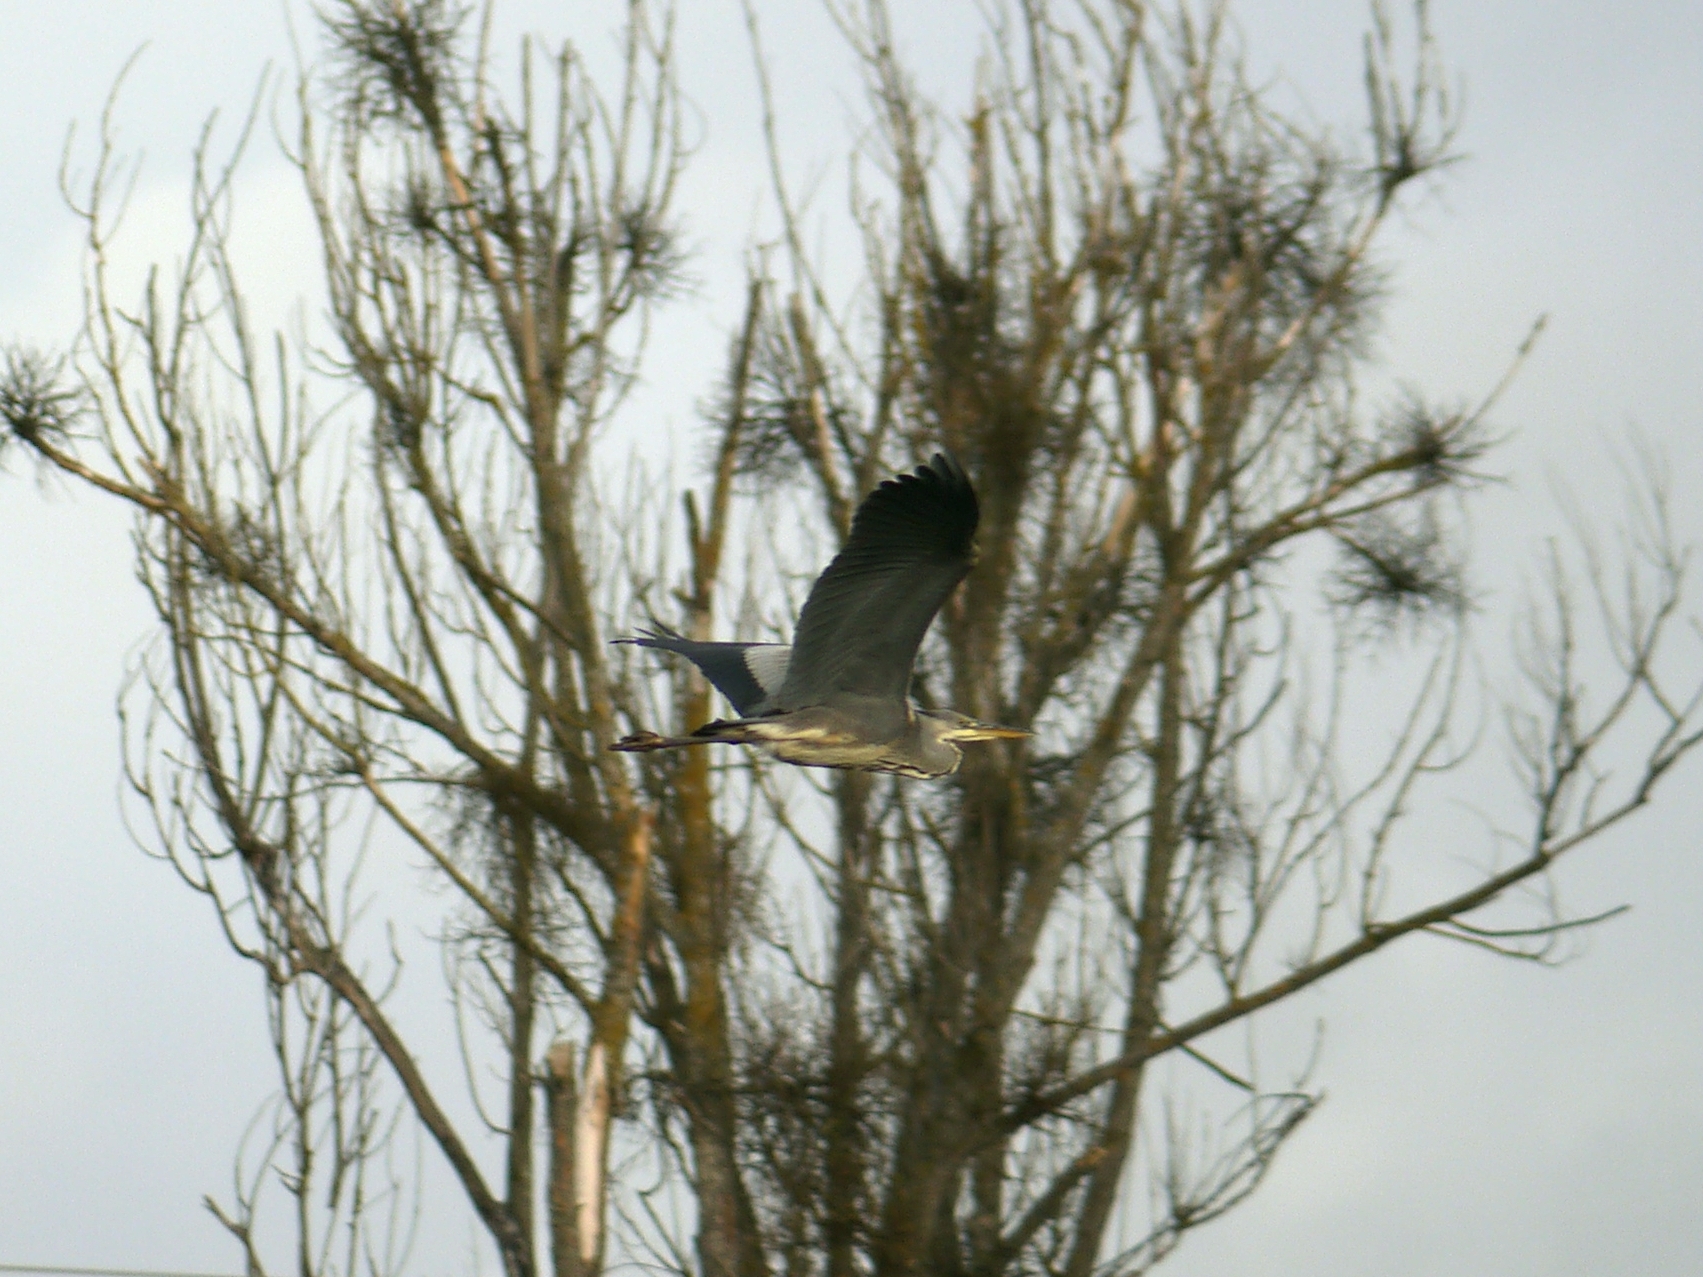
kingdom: Animalia
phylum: Chordata
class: Aves
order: Pelecaniformes
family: Ardeidae
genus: Ardea
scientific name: Ardea cinerea
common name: Grey heron
